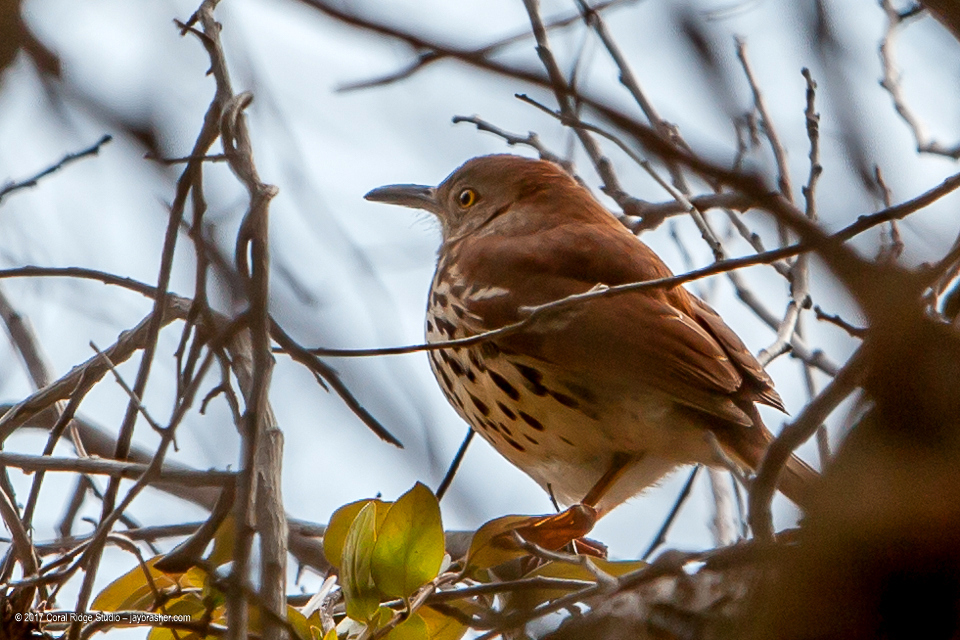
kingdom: Animalia
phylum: Chordata
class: Aves
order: Passeriformes
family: Mimidae
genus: Toxostoma
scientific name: Toxostoma rufum
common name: Brown thrasher
